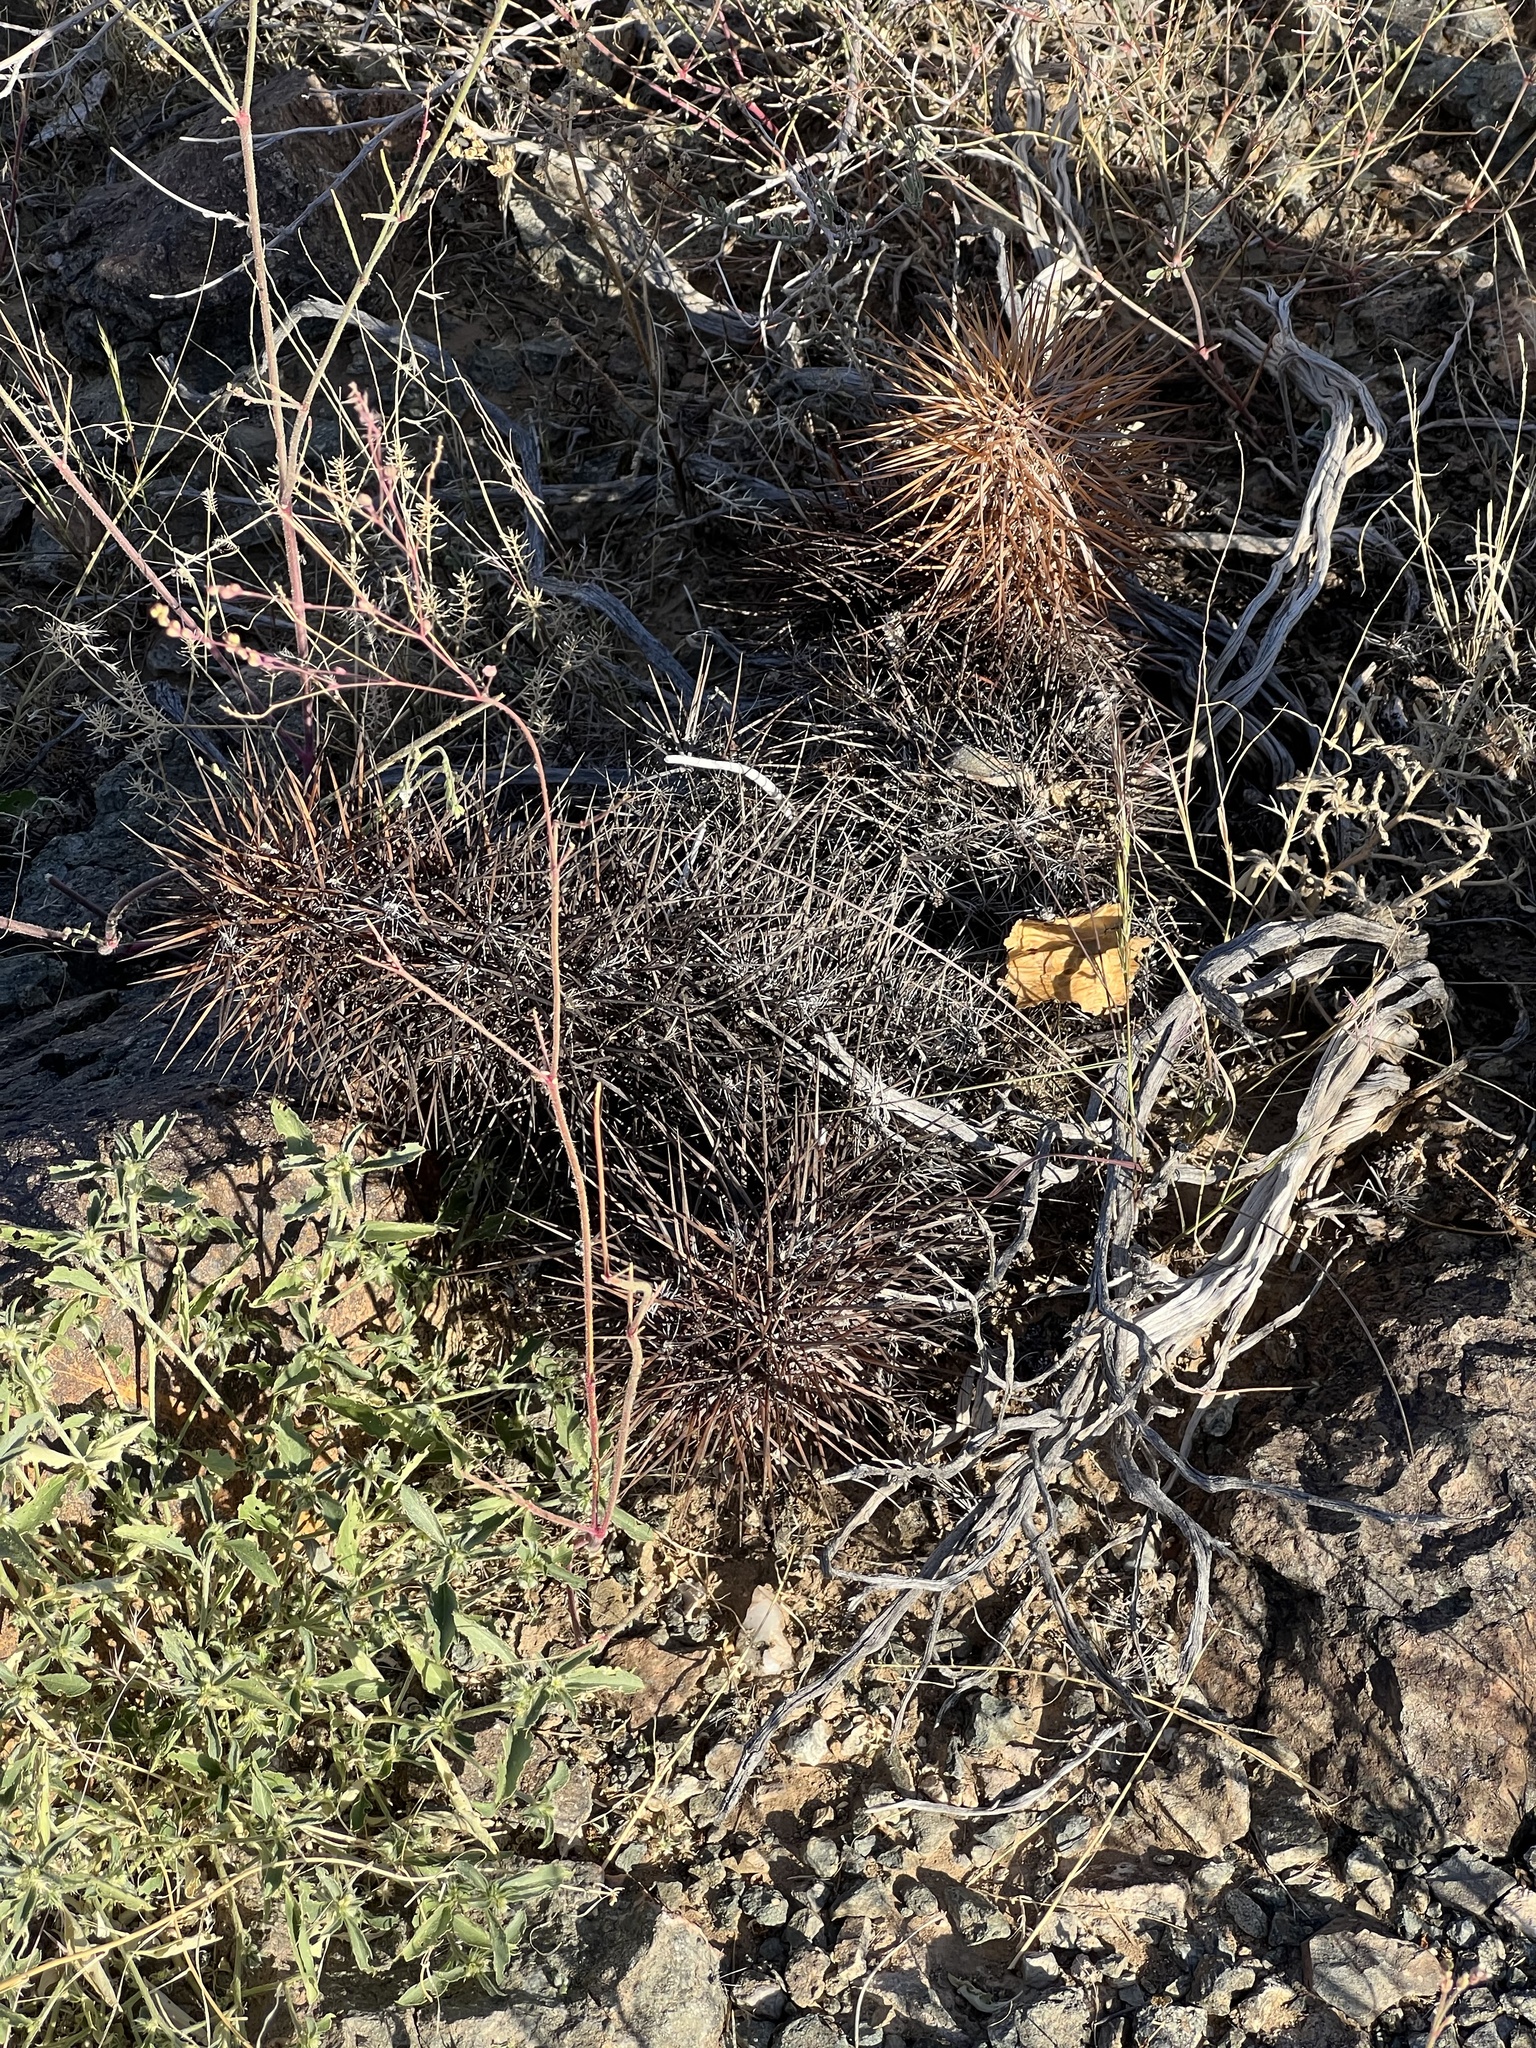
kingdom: Plantae
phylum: Tracheophyta
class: Magnoliopsida
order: Caryophyllales
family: Cactaceae
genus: Echinocereus
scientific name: Echinocereus engelmannii
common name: Engelmann's hedgehog cactus
